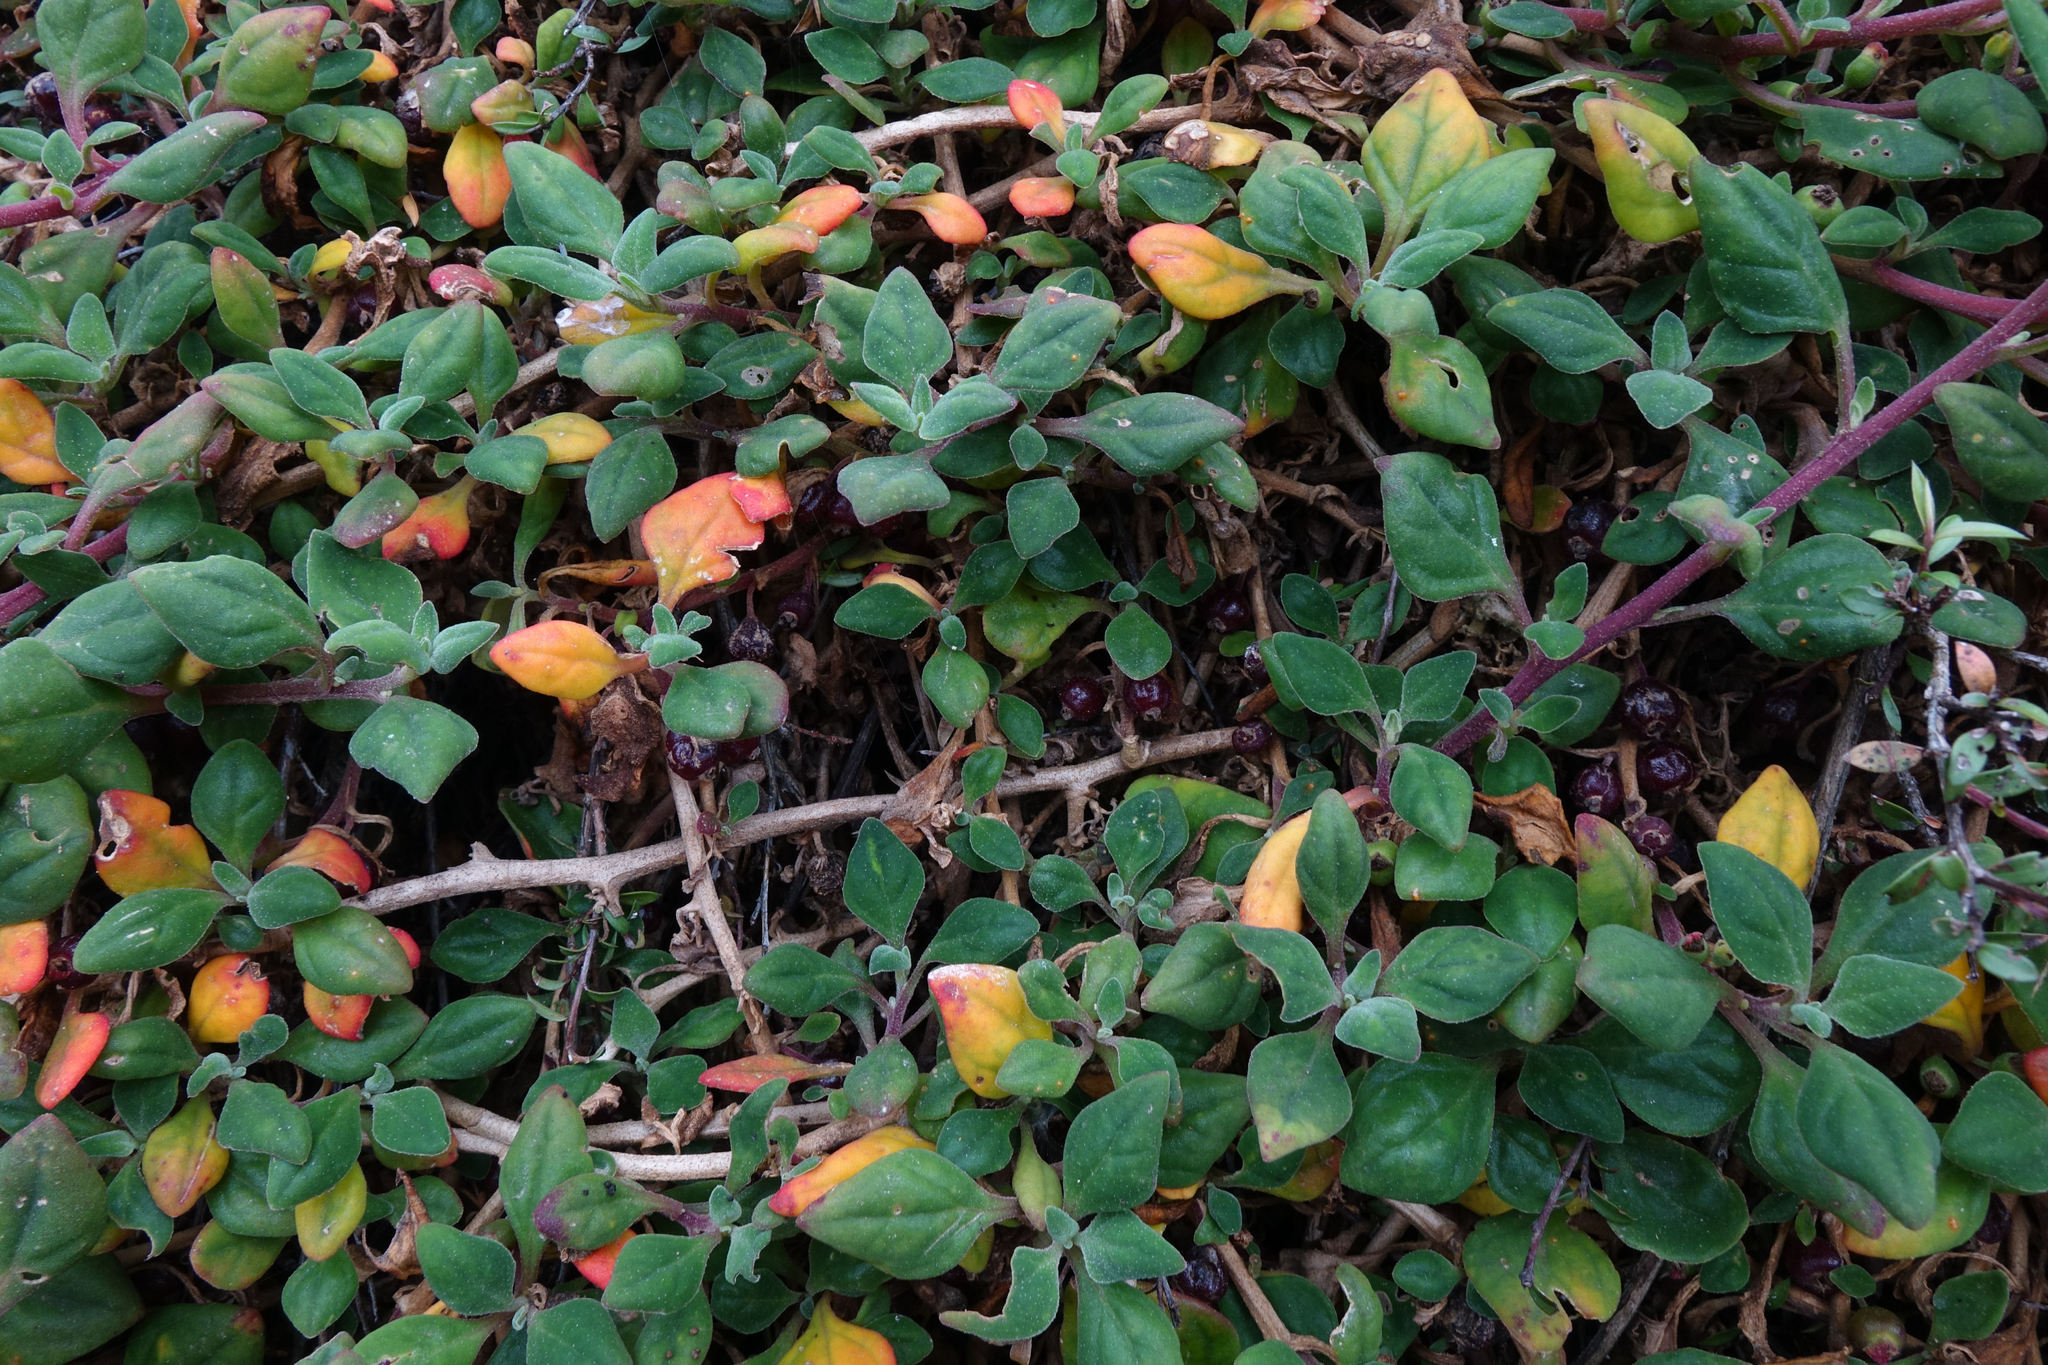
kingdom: Plantae
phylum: Tracheophyta
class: Magnoliopsida
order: Caryophyllales
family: Aizoaceae
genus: Tetragonia
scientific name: Tetragonia implexicoma
